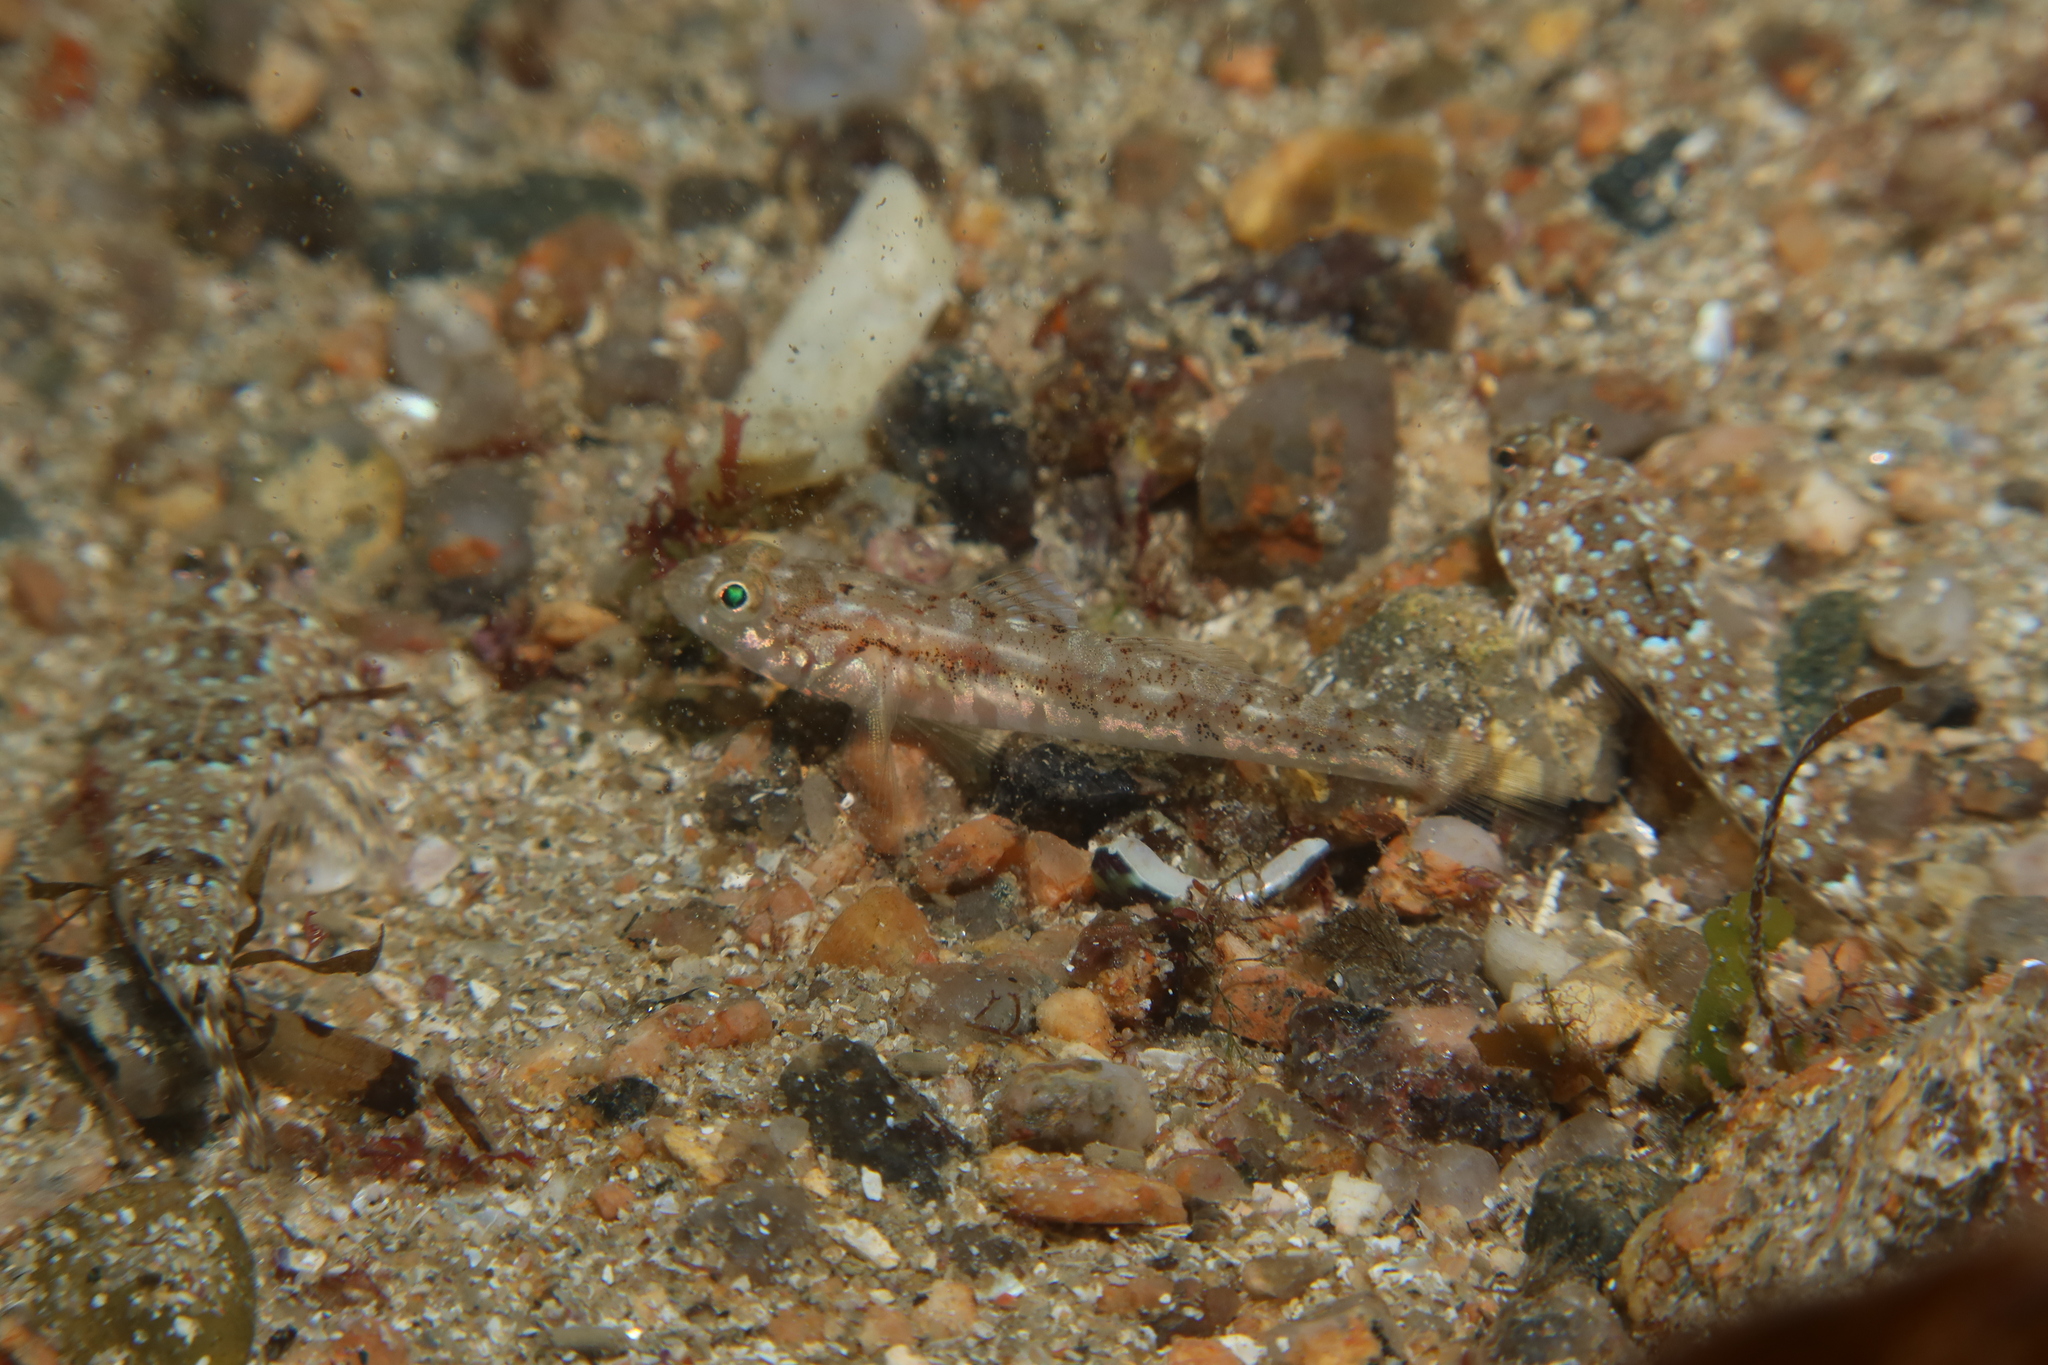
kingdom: Animalia
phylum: Chordata
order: Perciformes
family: Gobiidae
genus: Pomatoschistus
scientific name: Pomatoschistus pictus
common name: Painted goby
